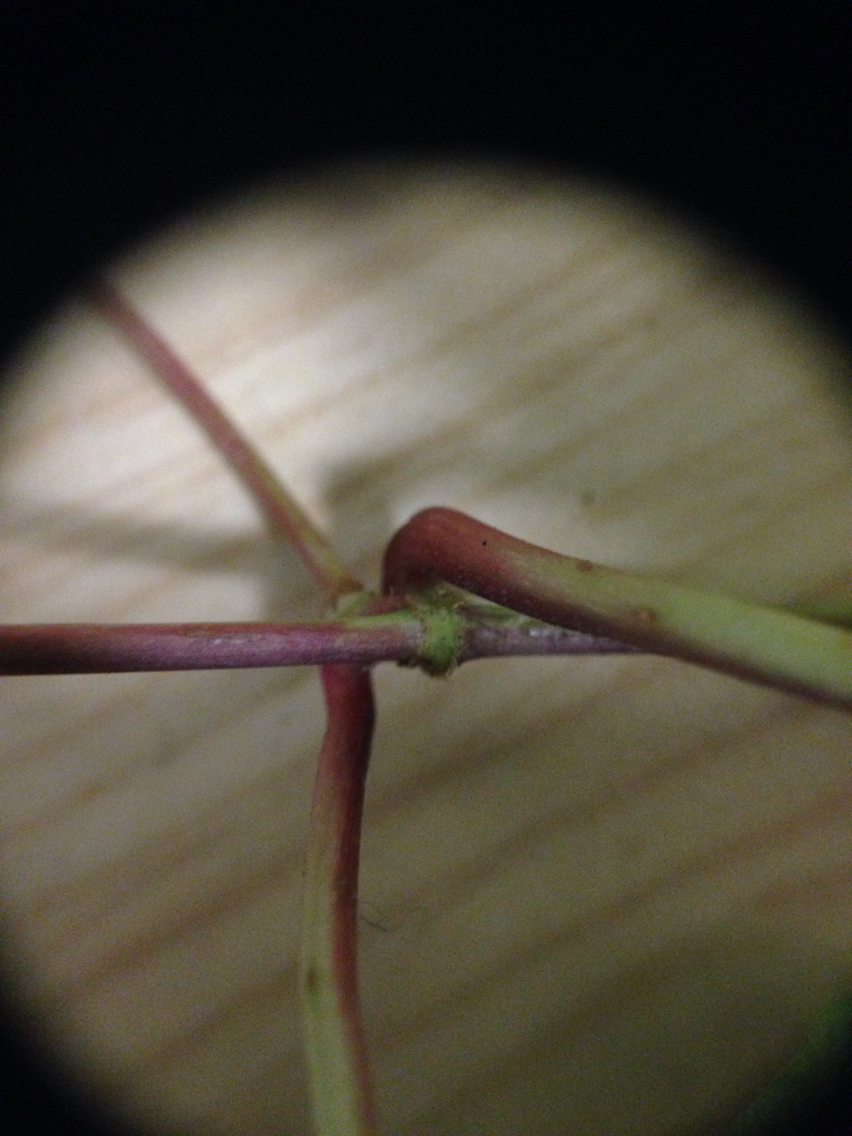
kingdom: Plantae
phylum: Tracheophyta
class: Magnoliopsida
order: Caryophyllales
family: Polygonaceae
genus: Parogonum
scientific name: Parogonum ciliinode
